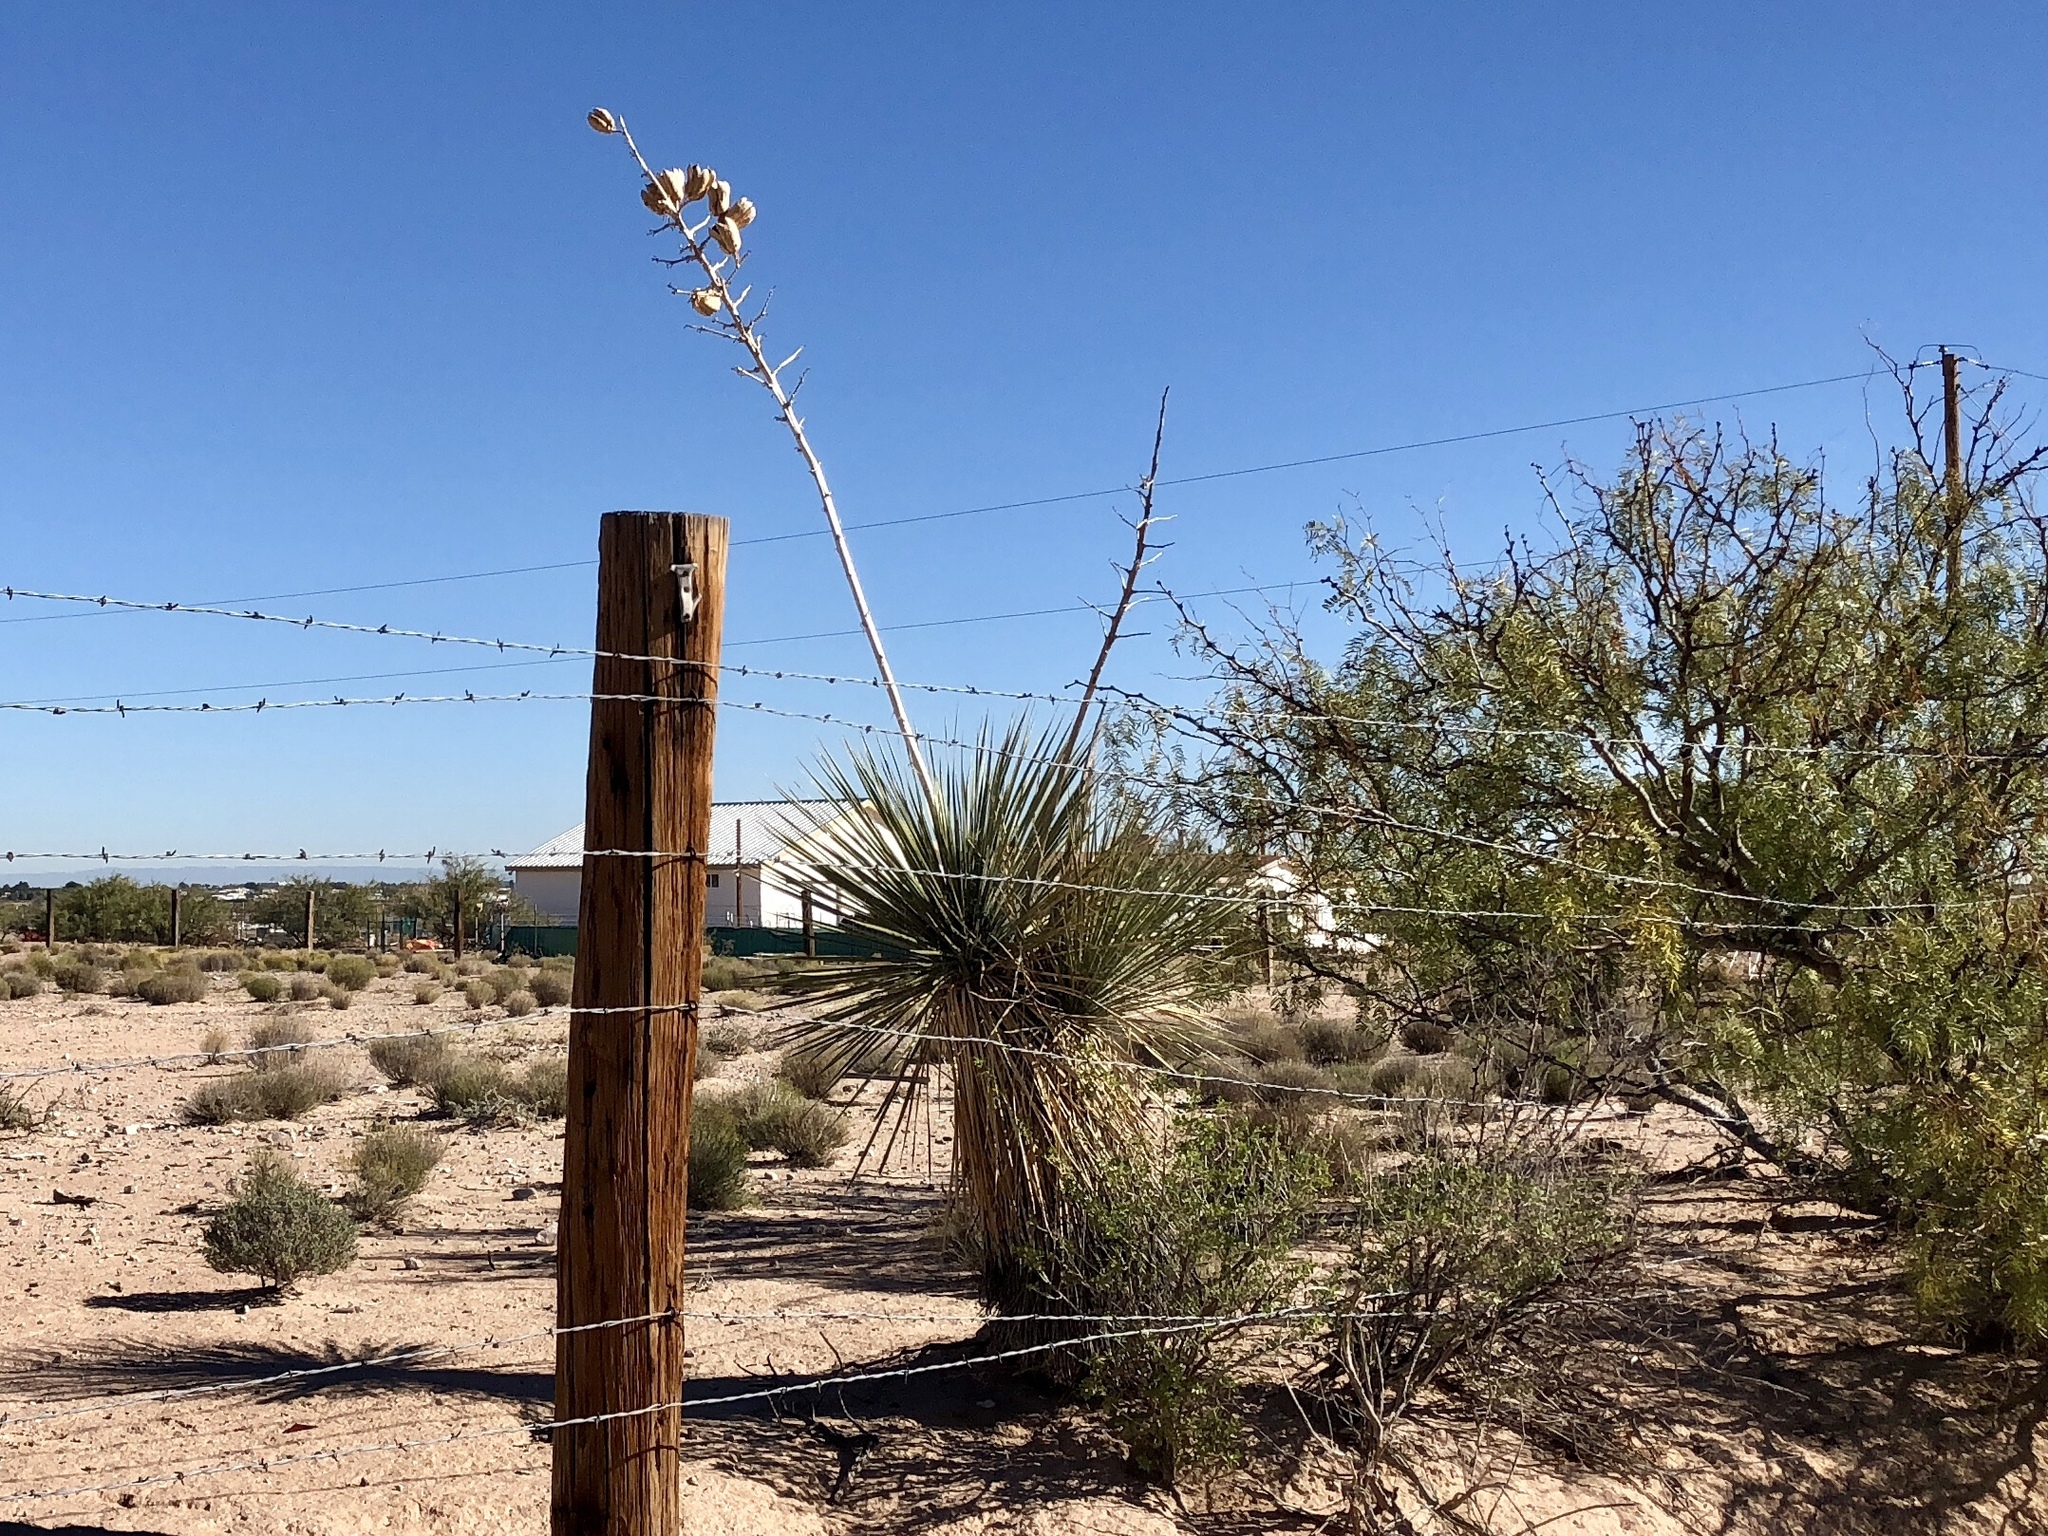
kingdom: Plantae
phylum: Tracheophyta
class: Liliopsida
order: Asparagales
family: Asparagaceae
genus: Yucca
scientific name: Yucca elata
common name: Palmella
